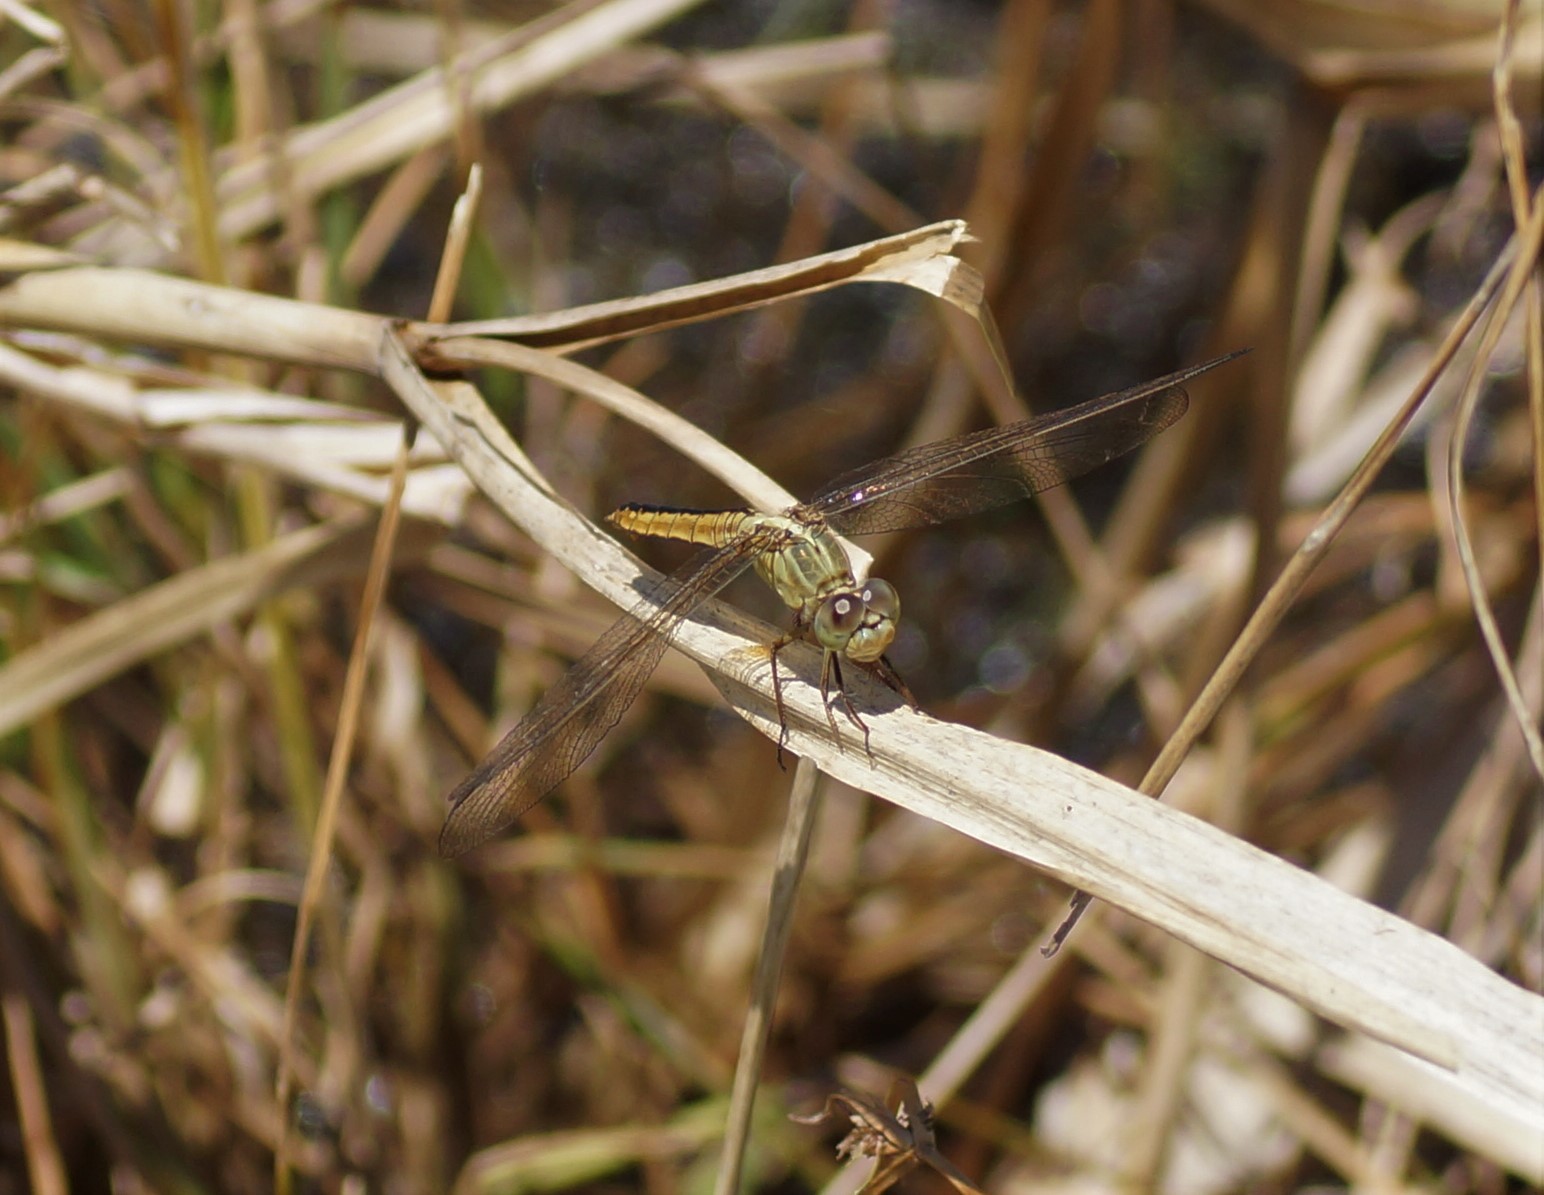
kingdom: Animalia
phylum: Arthropoda
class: Insecta
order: Odonata
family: Libellulidae
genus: Crocothemis
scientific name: Crocothemis nigrifrons
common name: Black-headed skimmer
